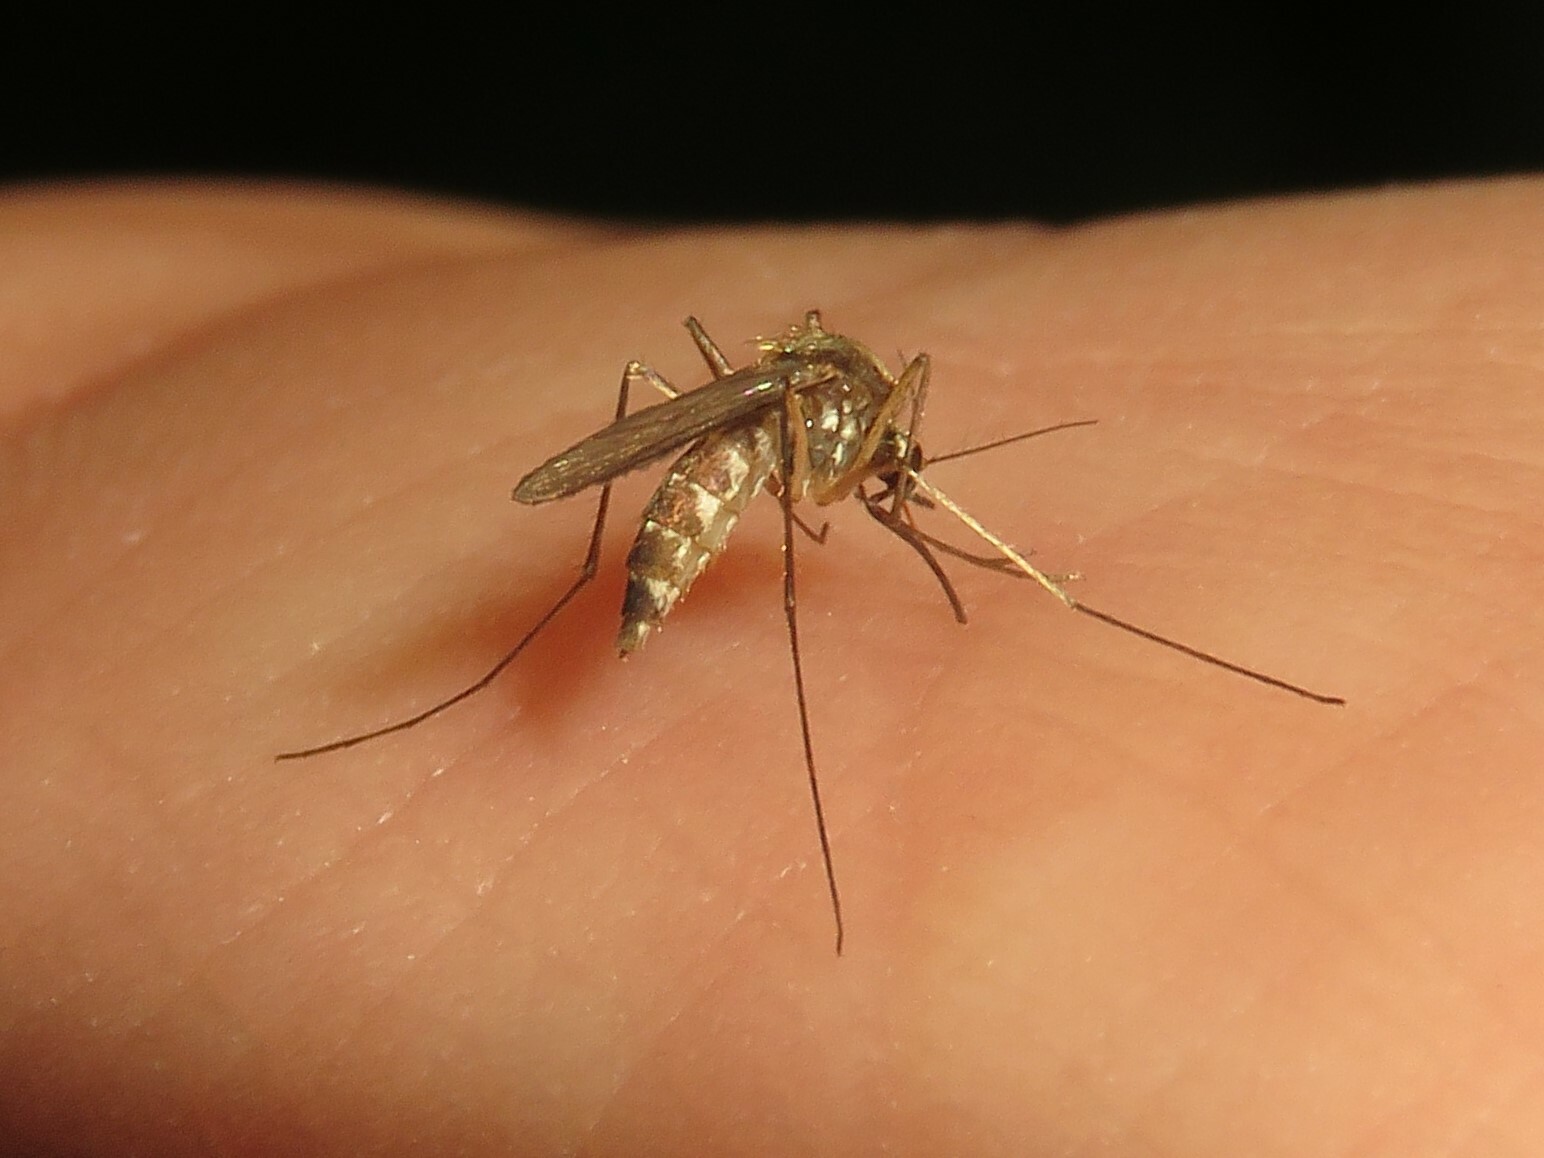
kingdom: Animalia
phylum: Arthropoda
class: Insecta
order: Diptera
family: Culicidae
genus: Aedes
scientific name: Aedes trivittatus
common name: Plains floodwater mosquito
